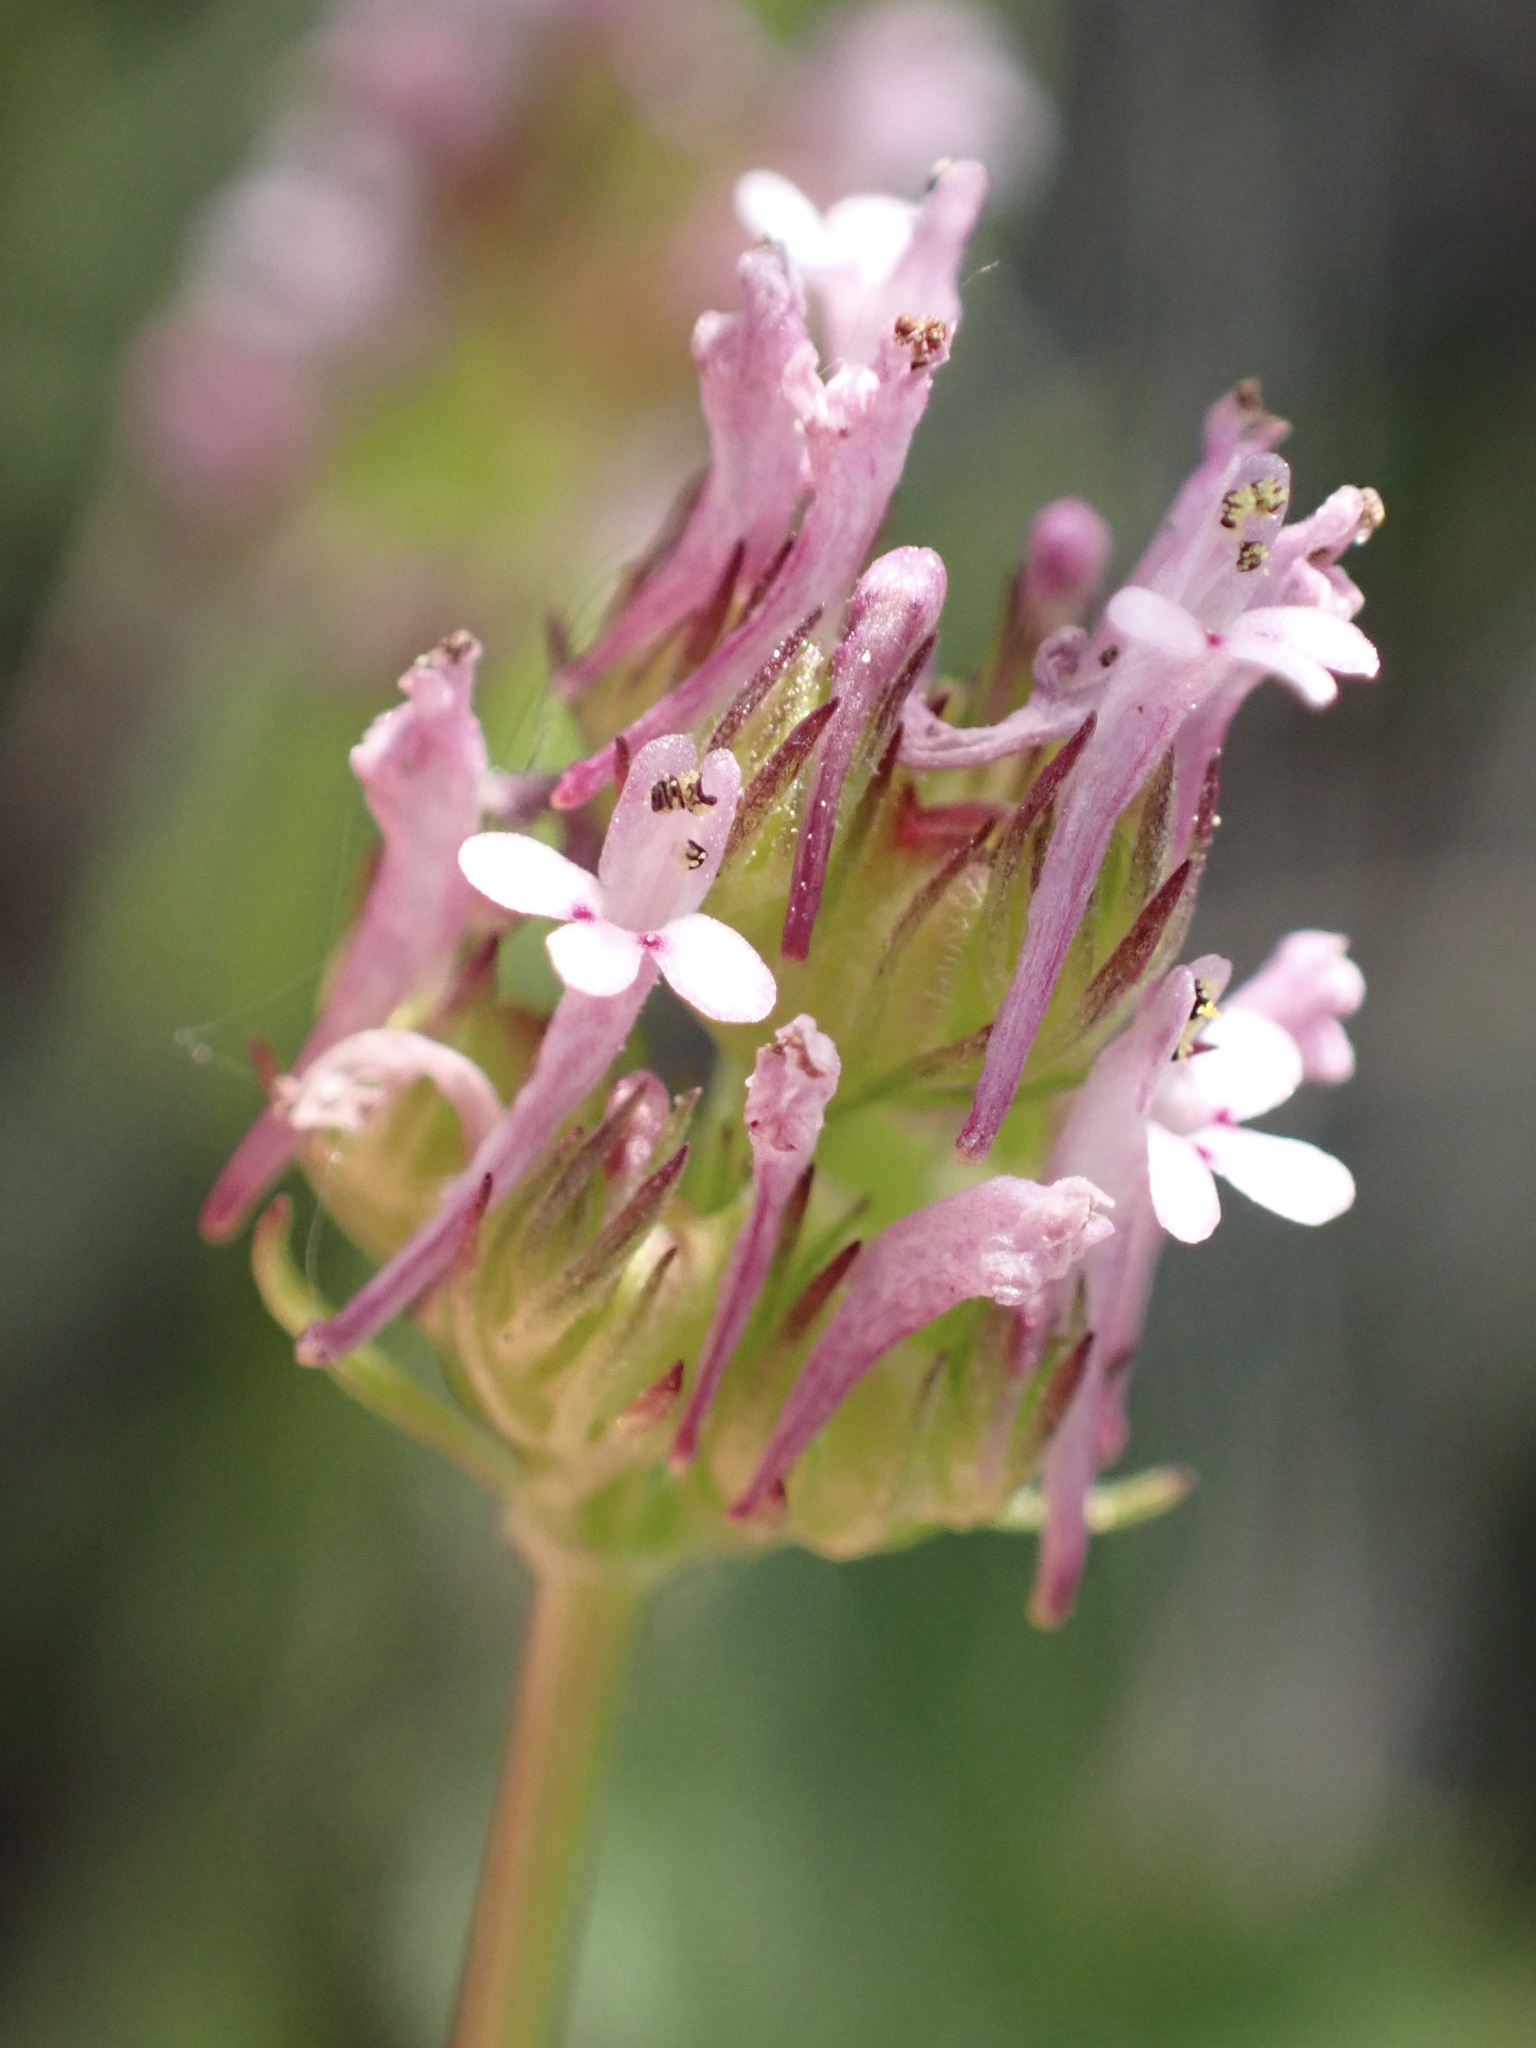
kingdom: Plantae
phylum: Tracheophyta
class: Magnoliopsida
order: Dipsacales
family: Caprifoliaceae
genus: Plectritis
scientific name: Plectritis ciliosa
